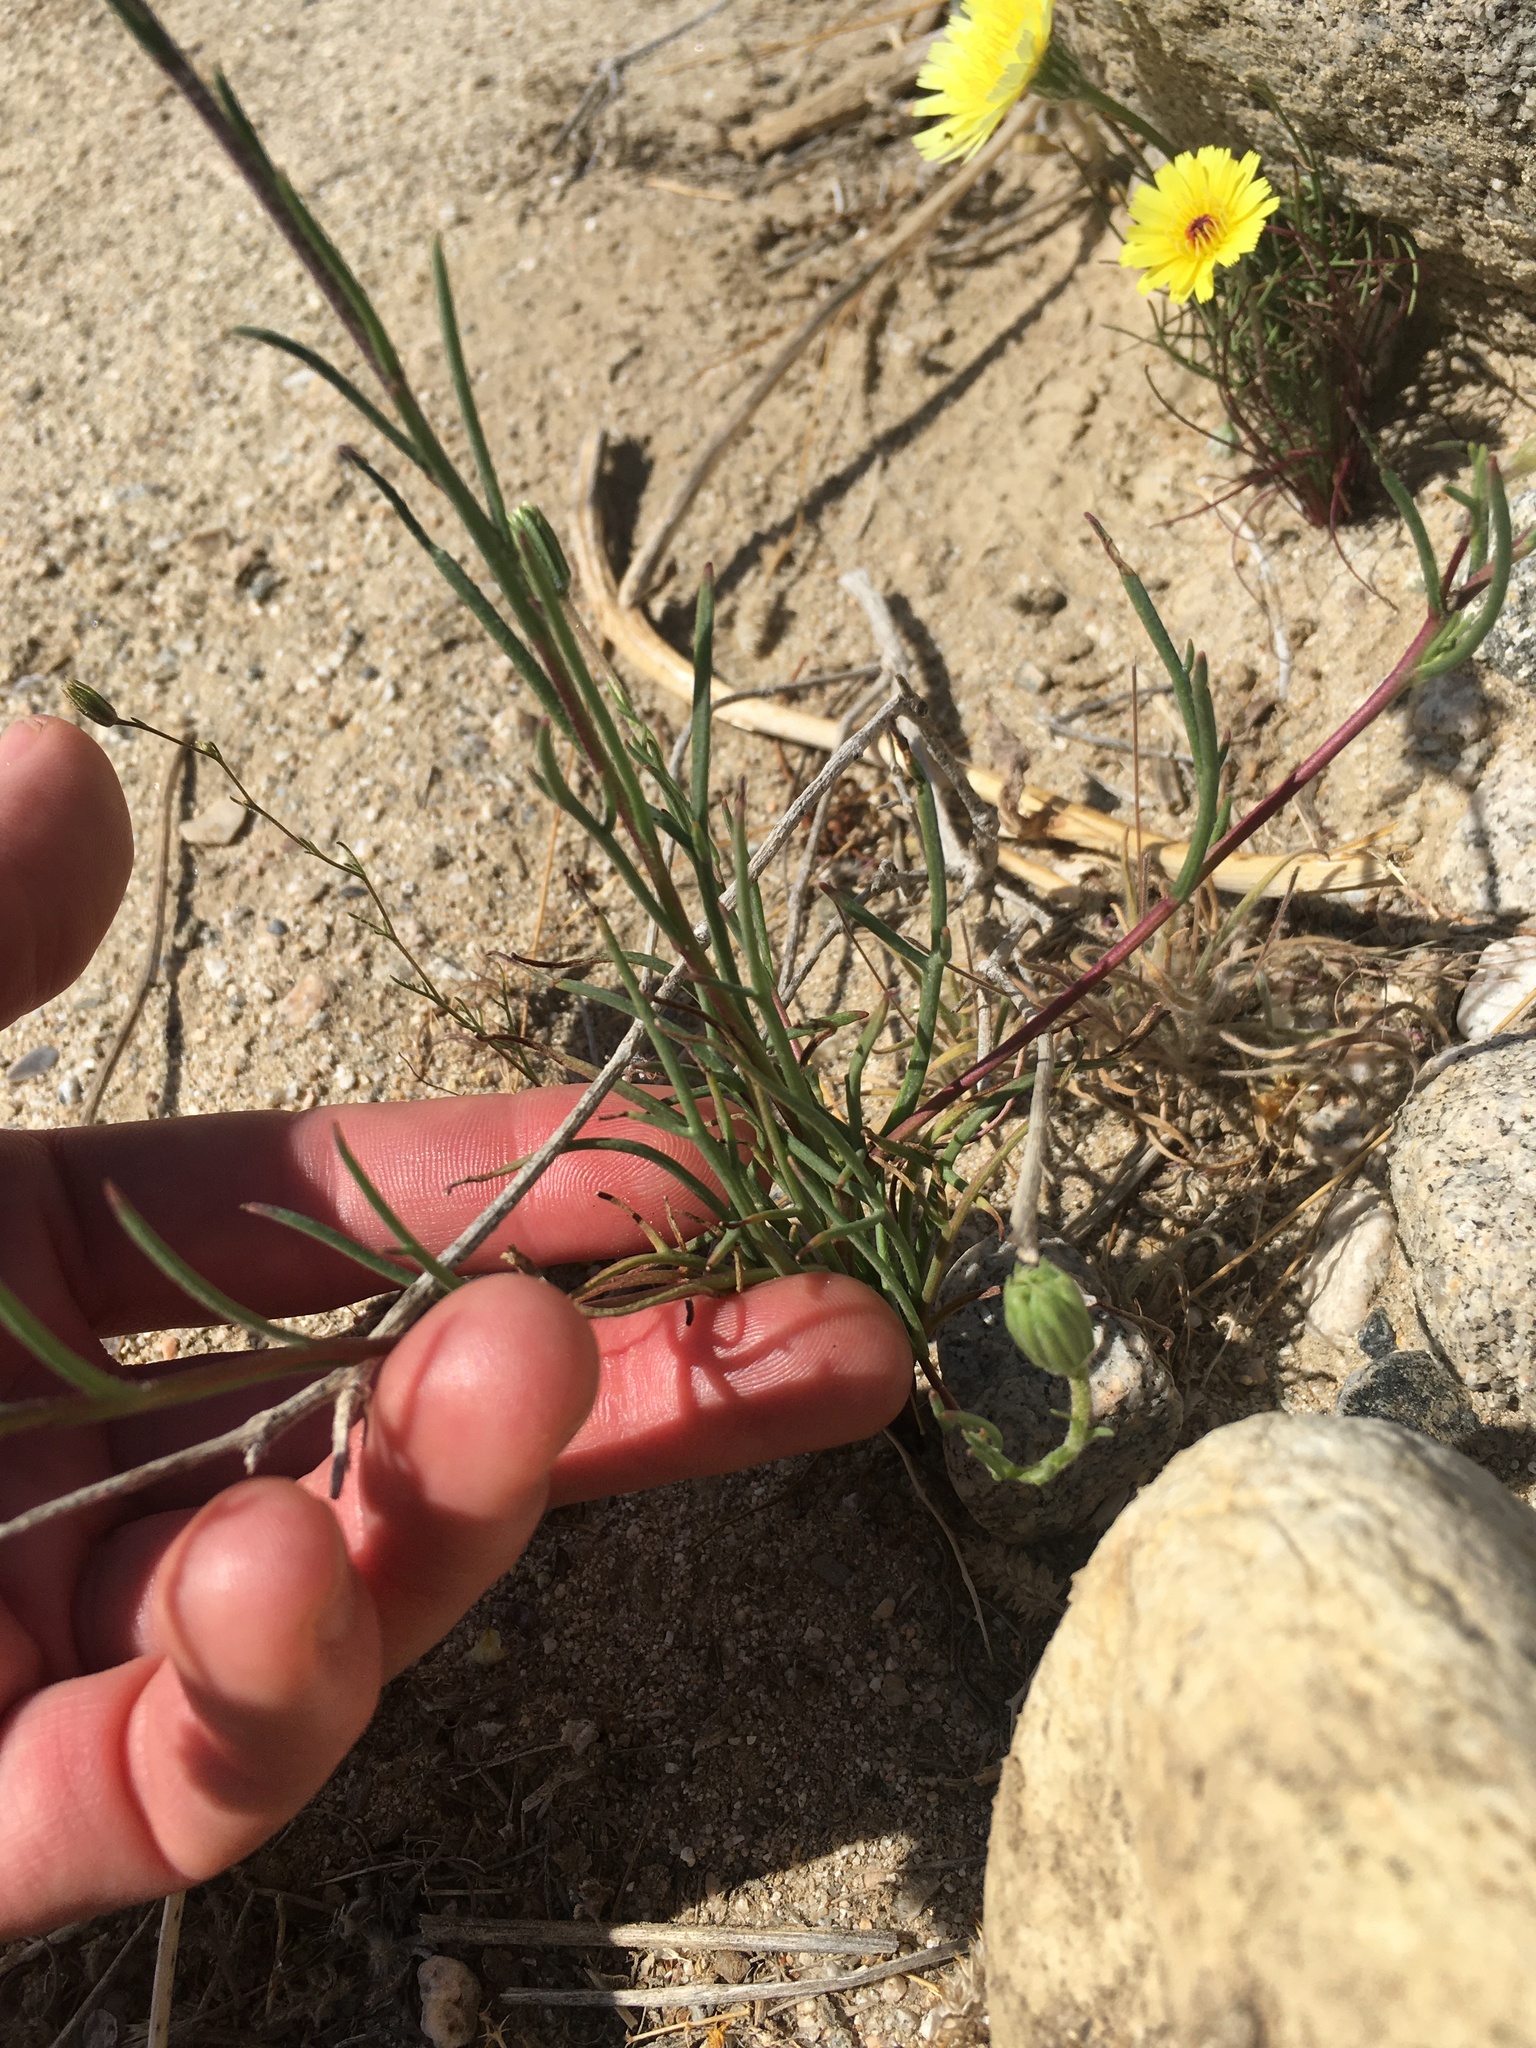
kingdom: Plantae
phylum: Tracheophyta
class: Magnoliopsida
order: Asterales
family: Asteraceae
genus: Chaenactis
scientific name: Chaenactis fremontii
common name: Fremont pincushion
